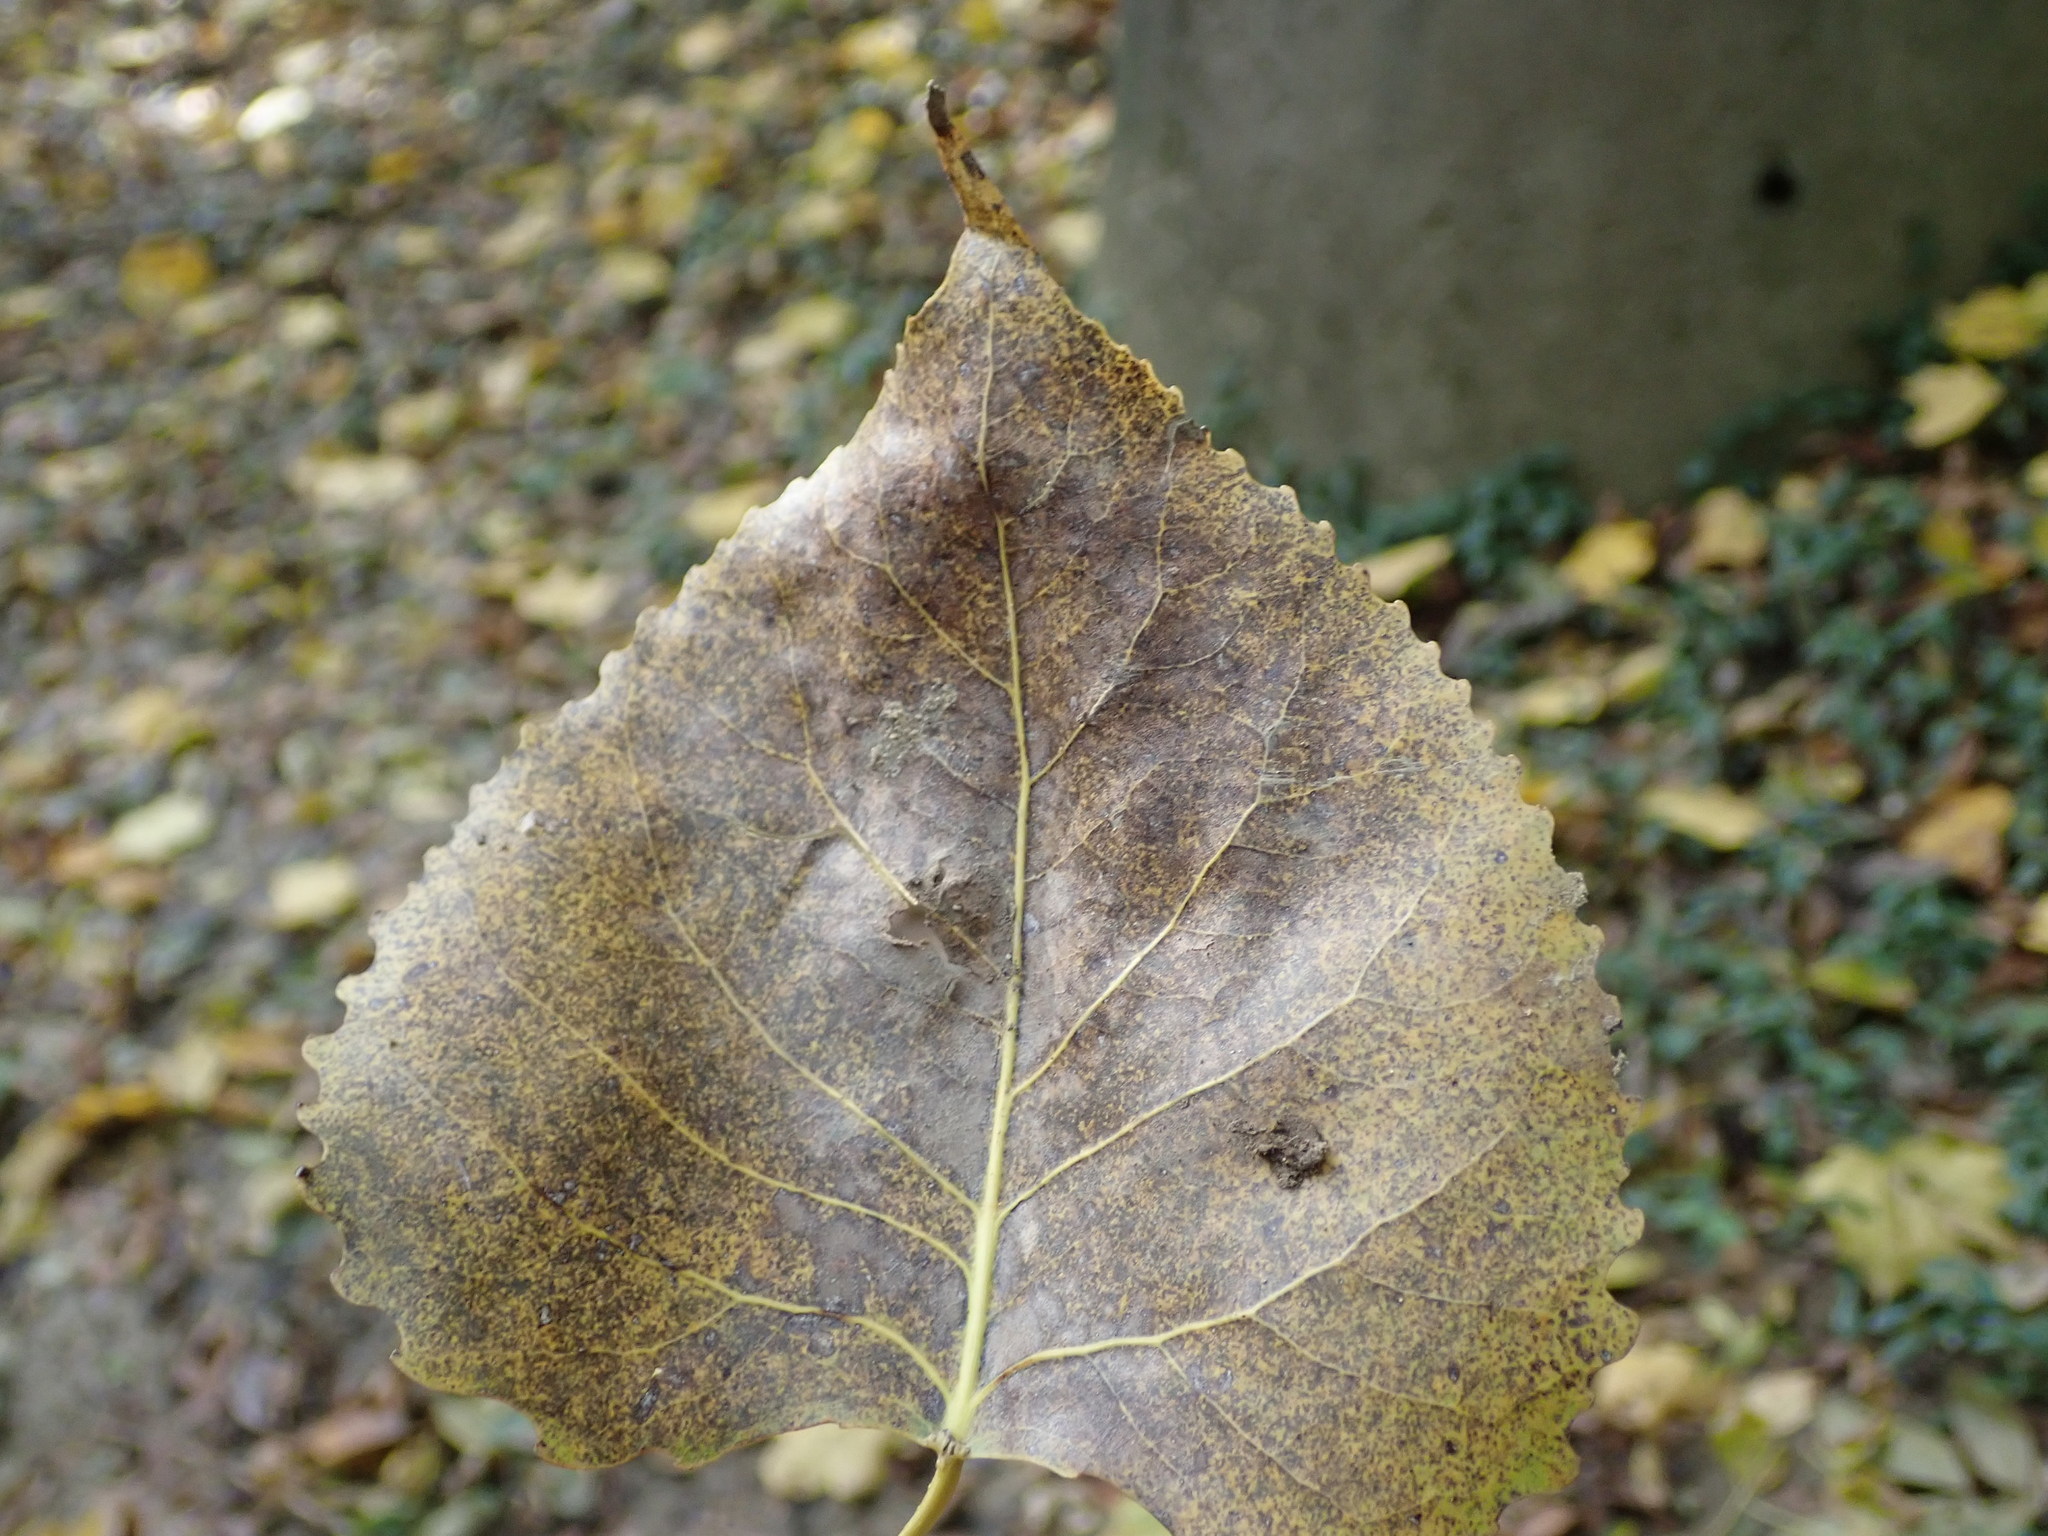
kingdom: Plantae
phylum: Tracheophyta
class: Magnoliopsida
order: Malpighiales
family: Salicaceae
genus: Populus
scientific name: Populus deltoides
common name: Eastern cottonwood
